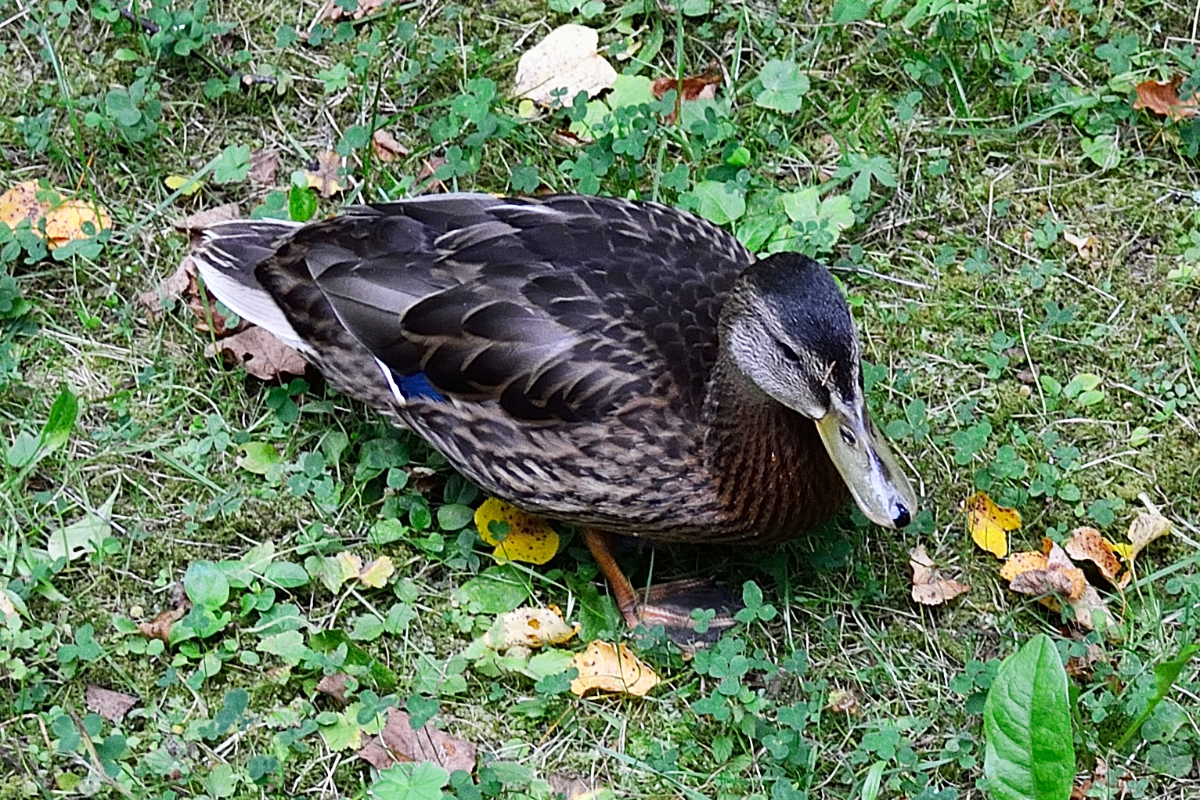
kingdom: Animalia
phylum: Chordata
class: Aves
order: Anseriformes
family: Anatidae
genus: Anas
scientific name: Anas platyrhynchos
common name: Mallard
